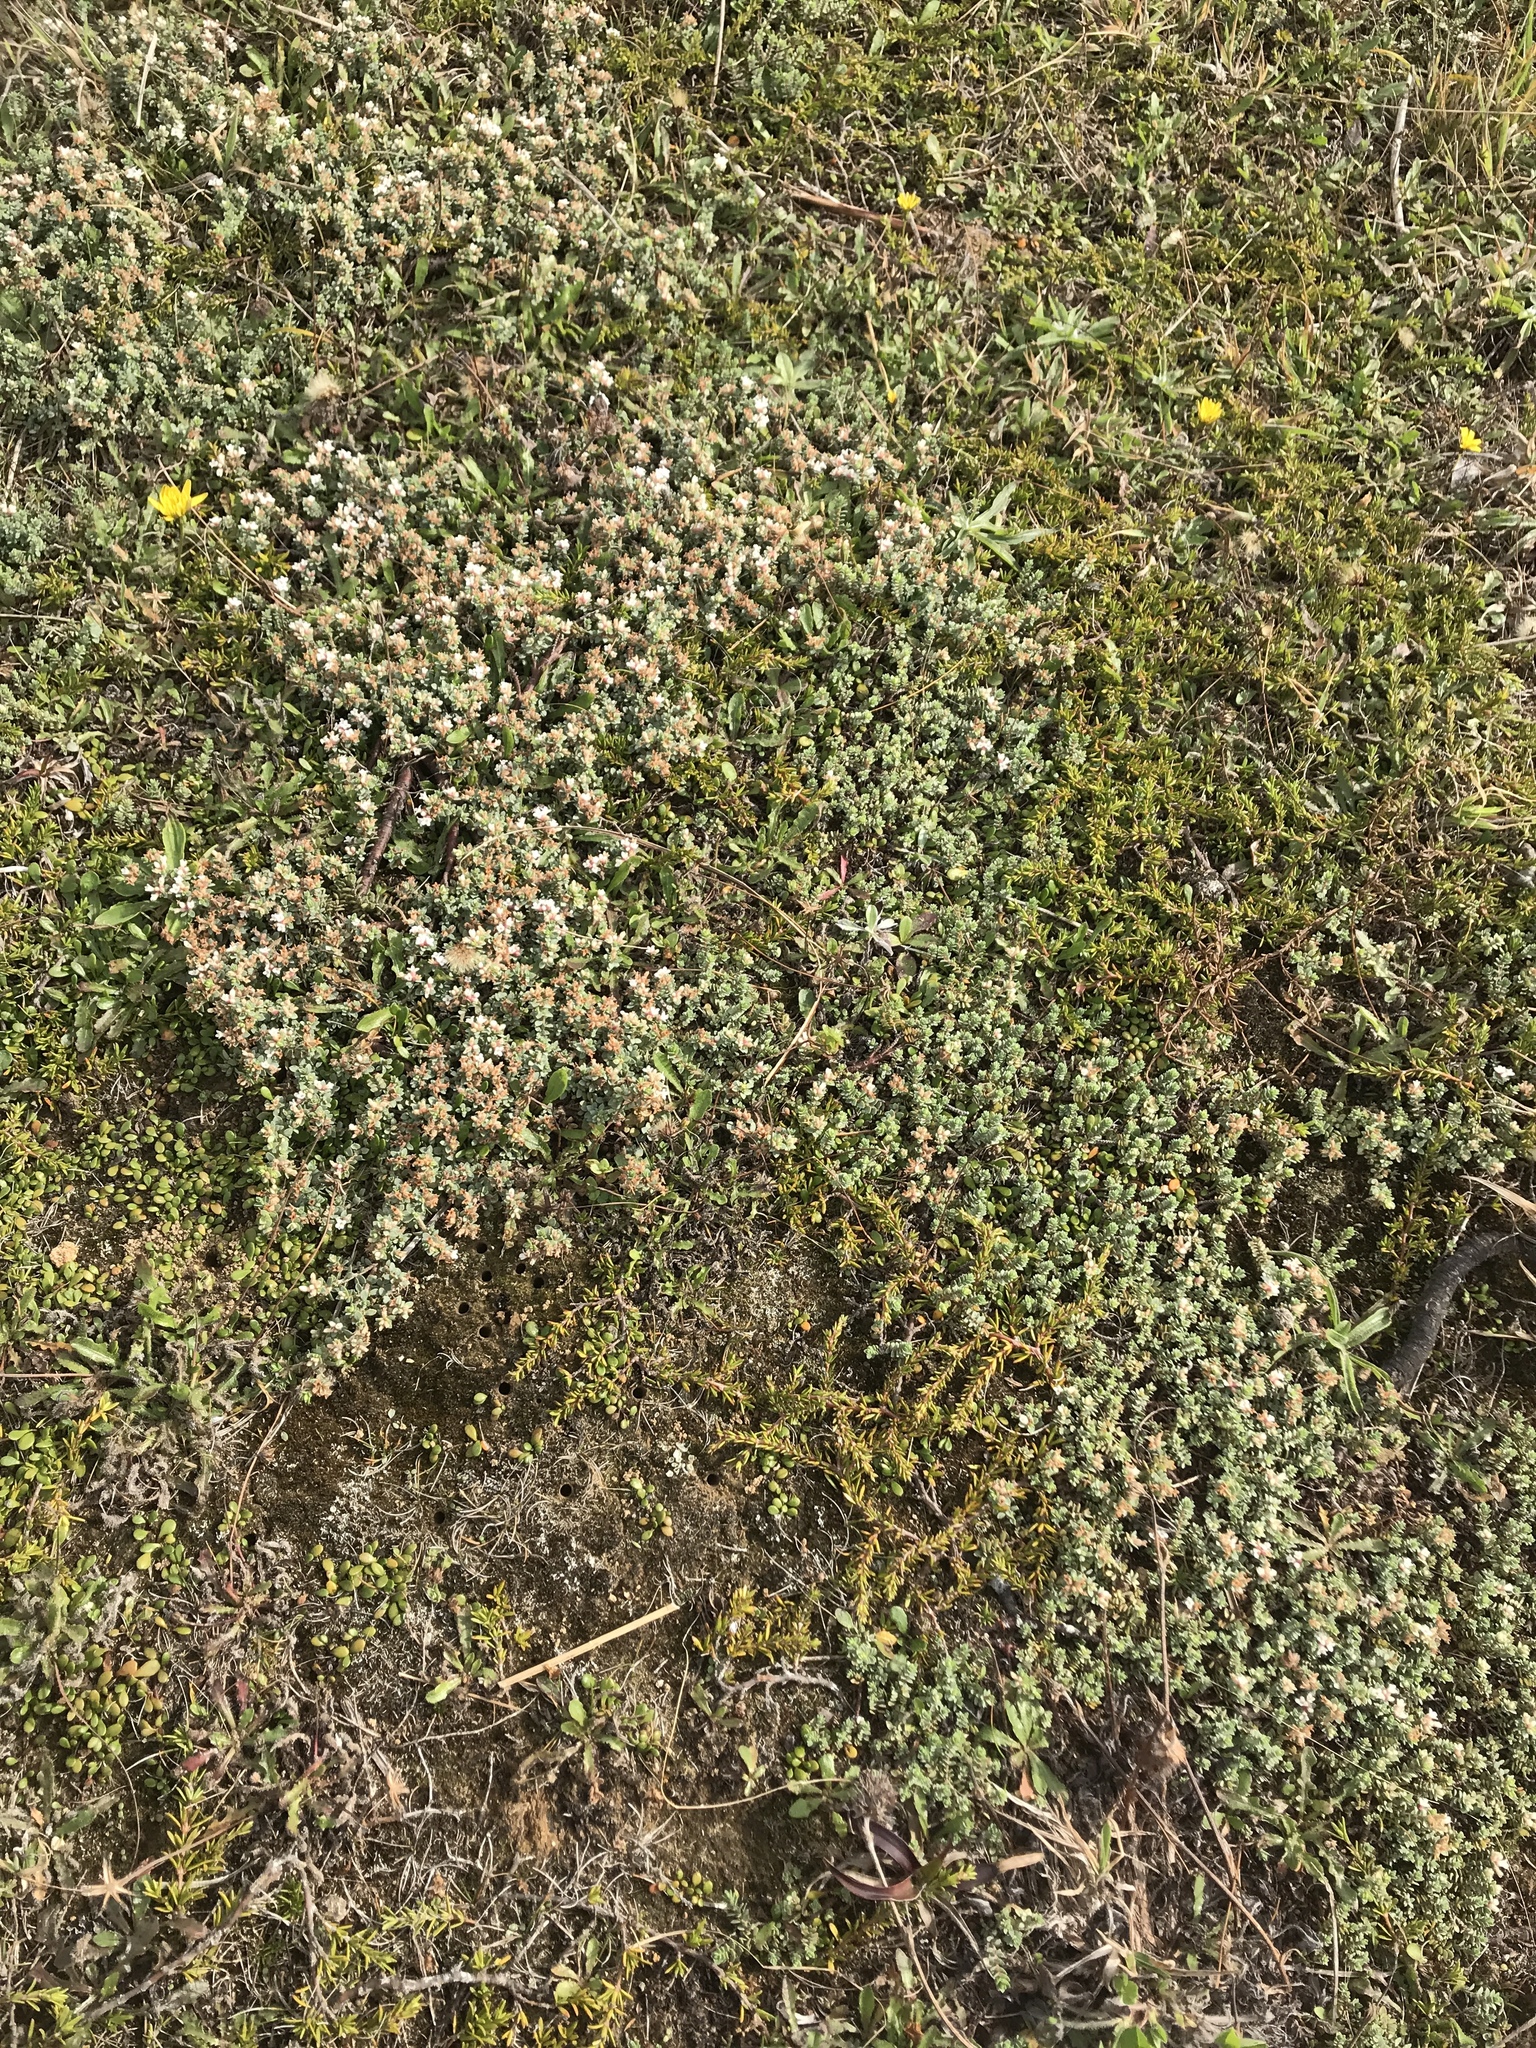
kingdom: Plantae
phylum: Tracheophyta
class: Magnoliopsida
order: Malvales
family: Thymelaeaceae
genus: Pimelea
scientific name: Pimelea carnosa
